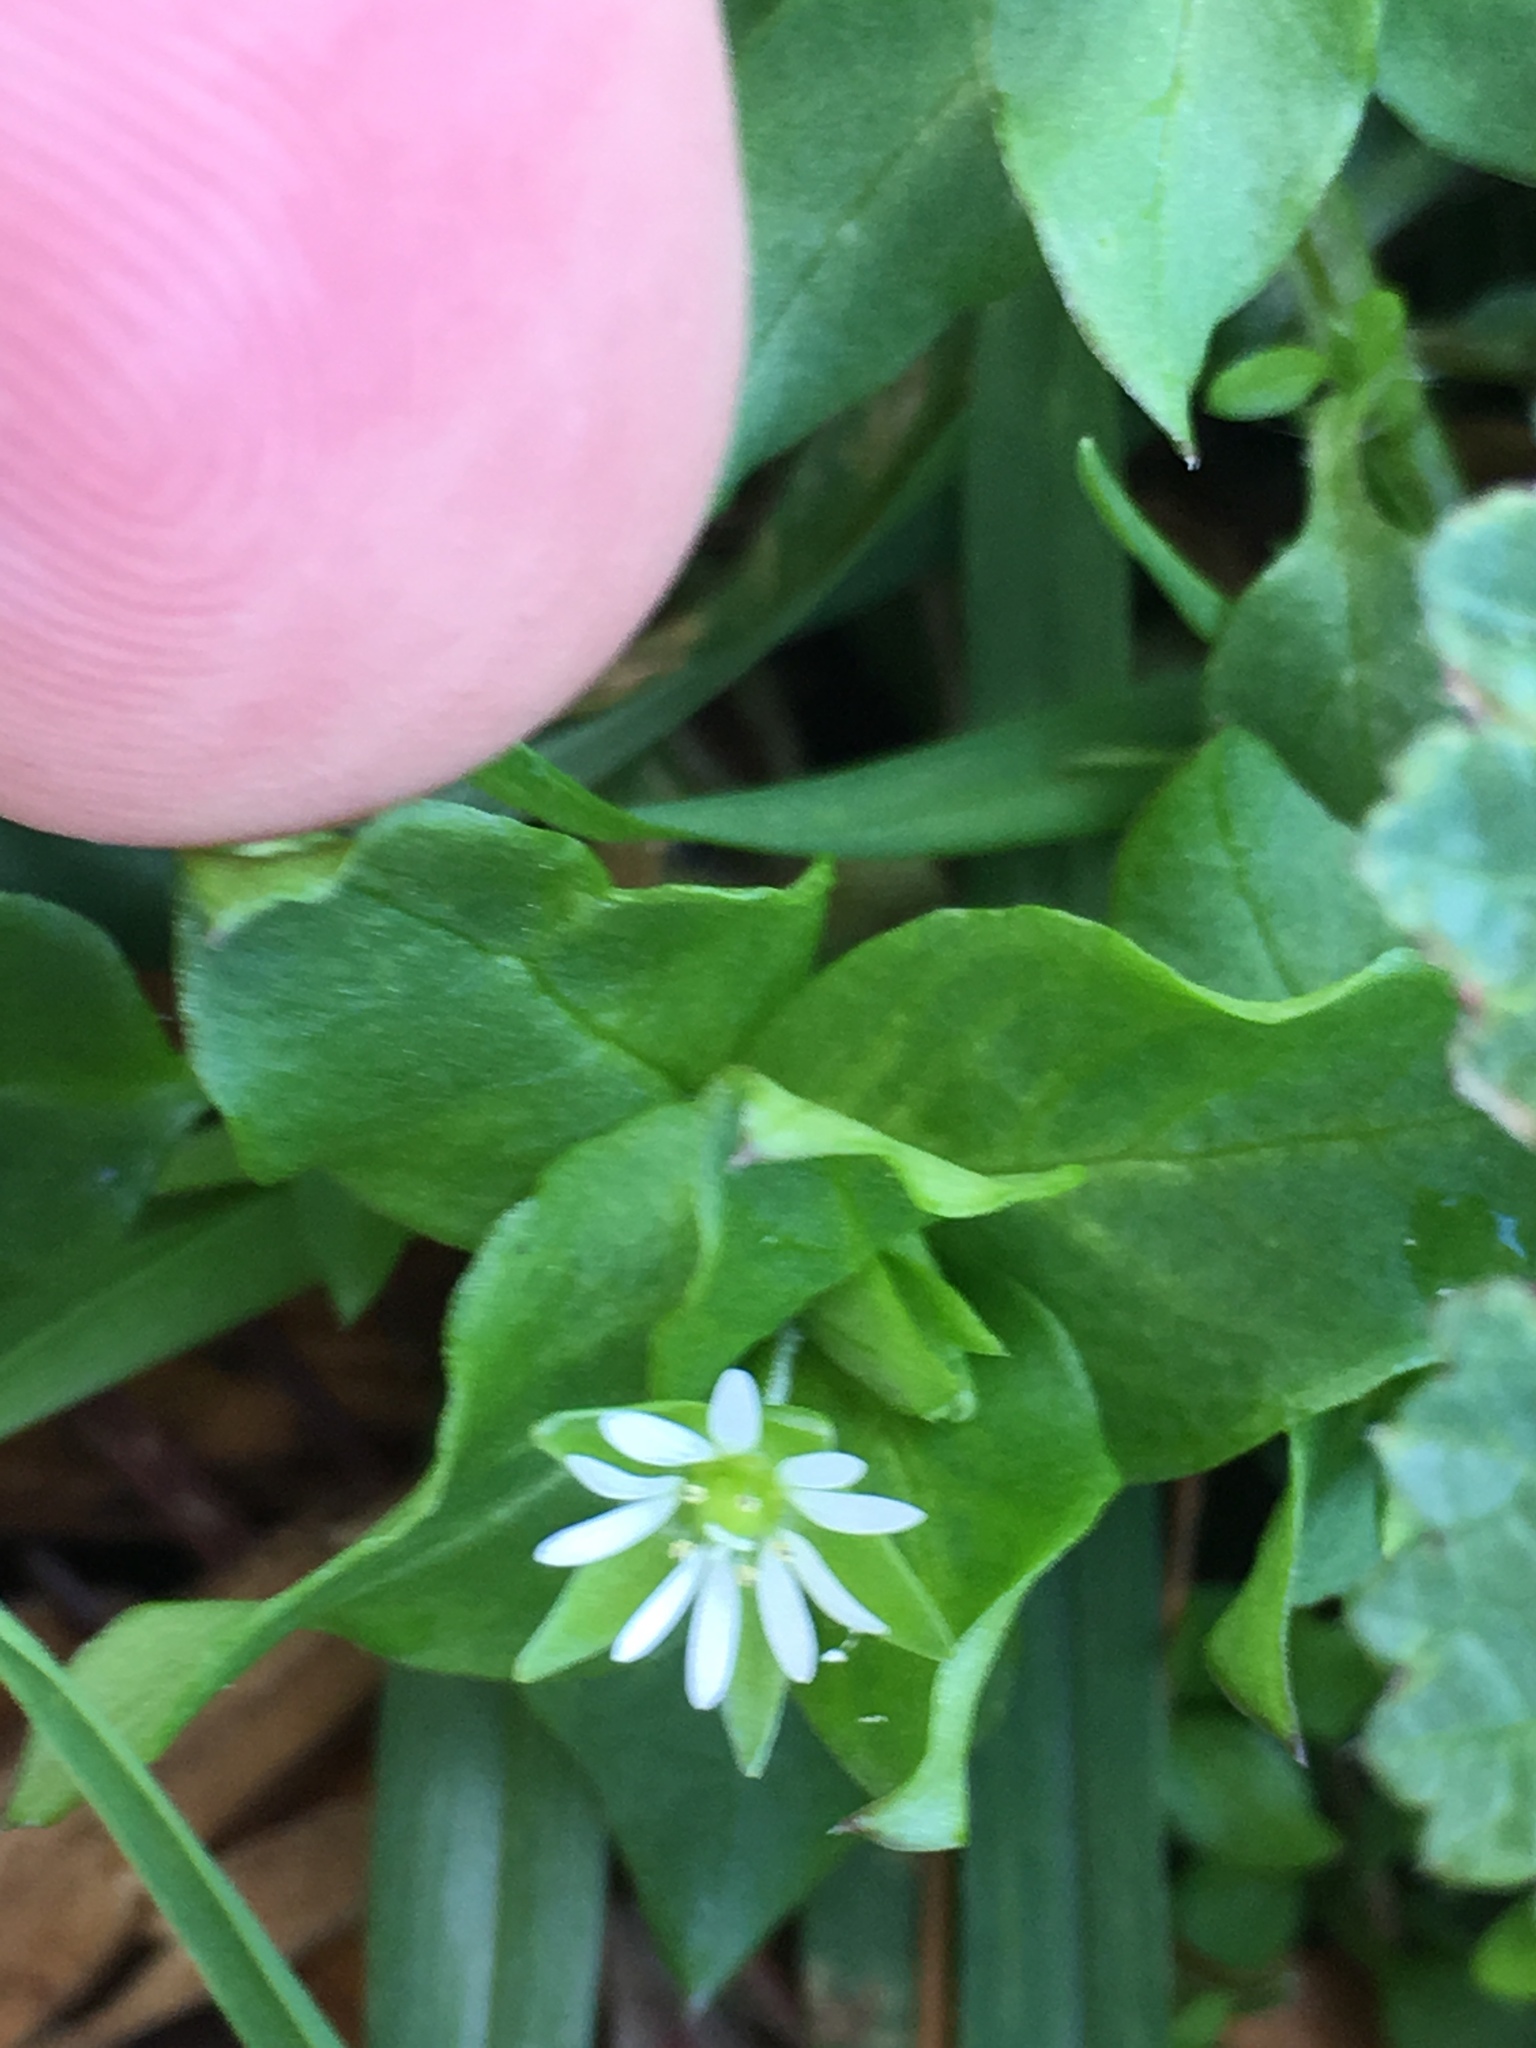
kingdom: Plantae
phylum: Tracheophyta
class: Magnoliopsida
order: Caryophyllales
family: Caryophyllaceae
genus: Stellaria
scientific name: Stellaria media
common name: Common chickweed
